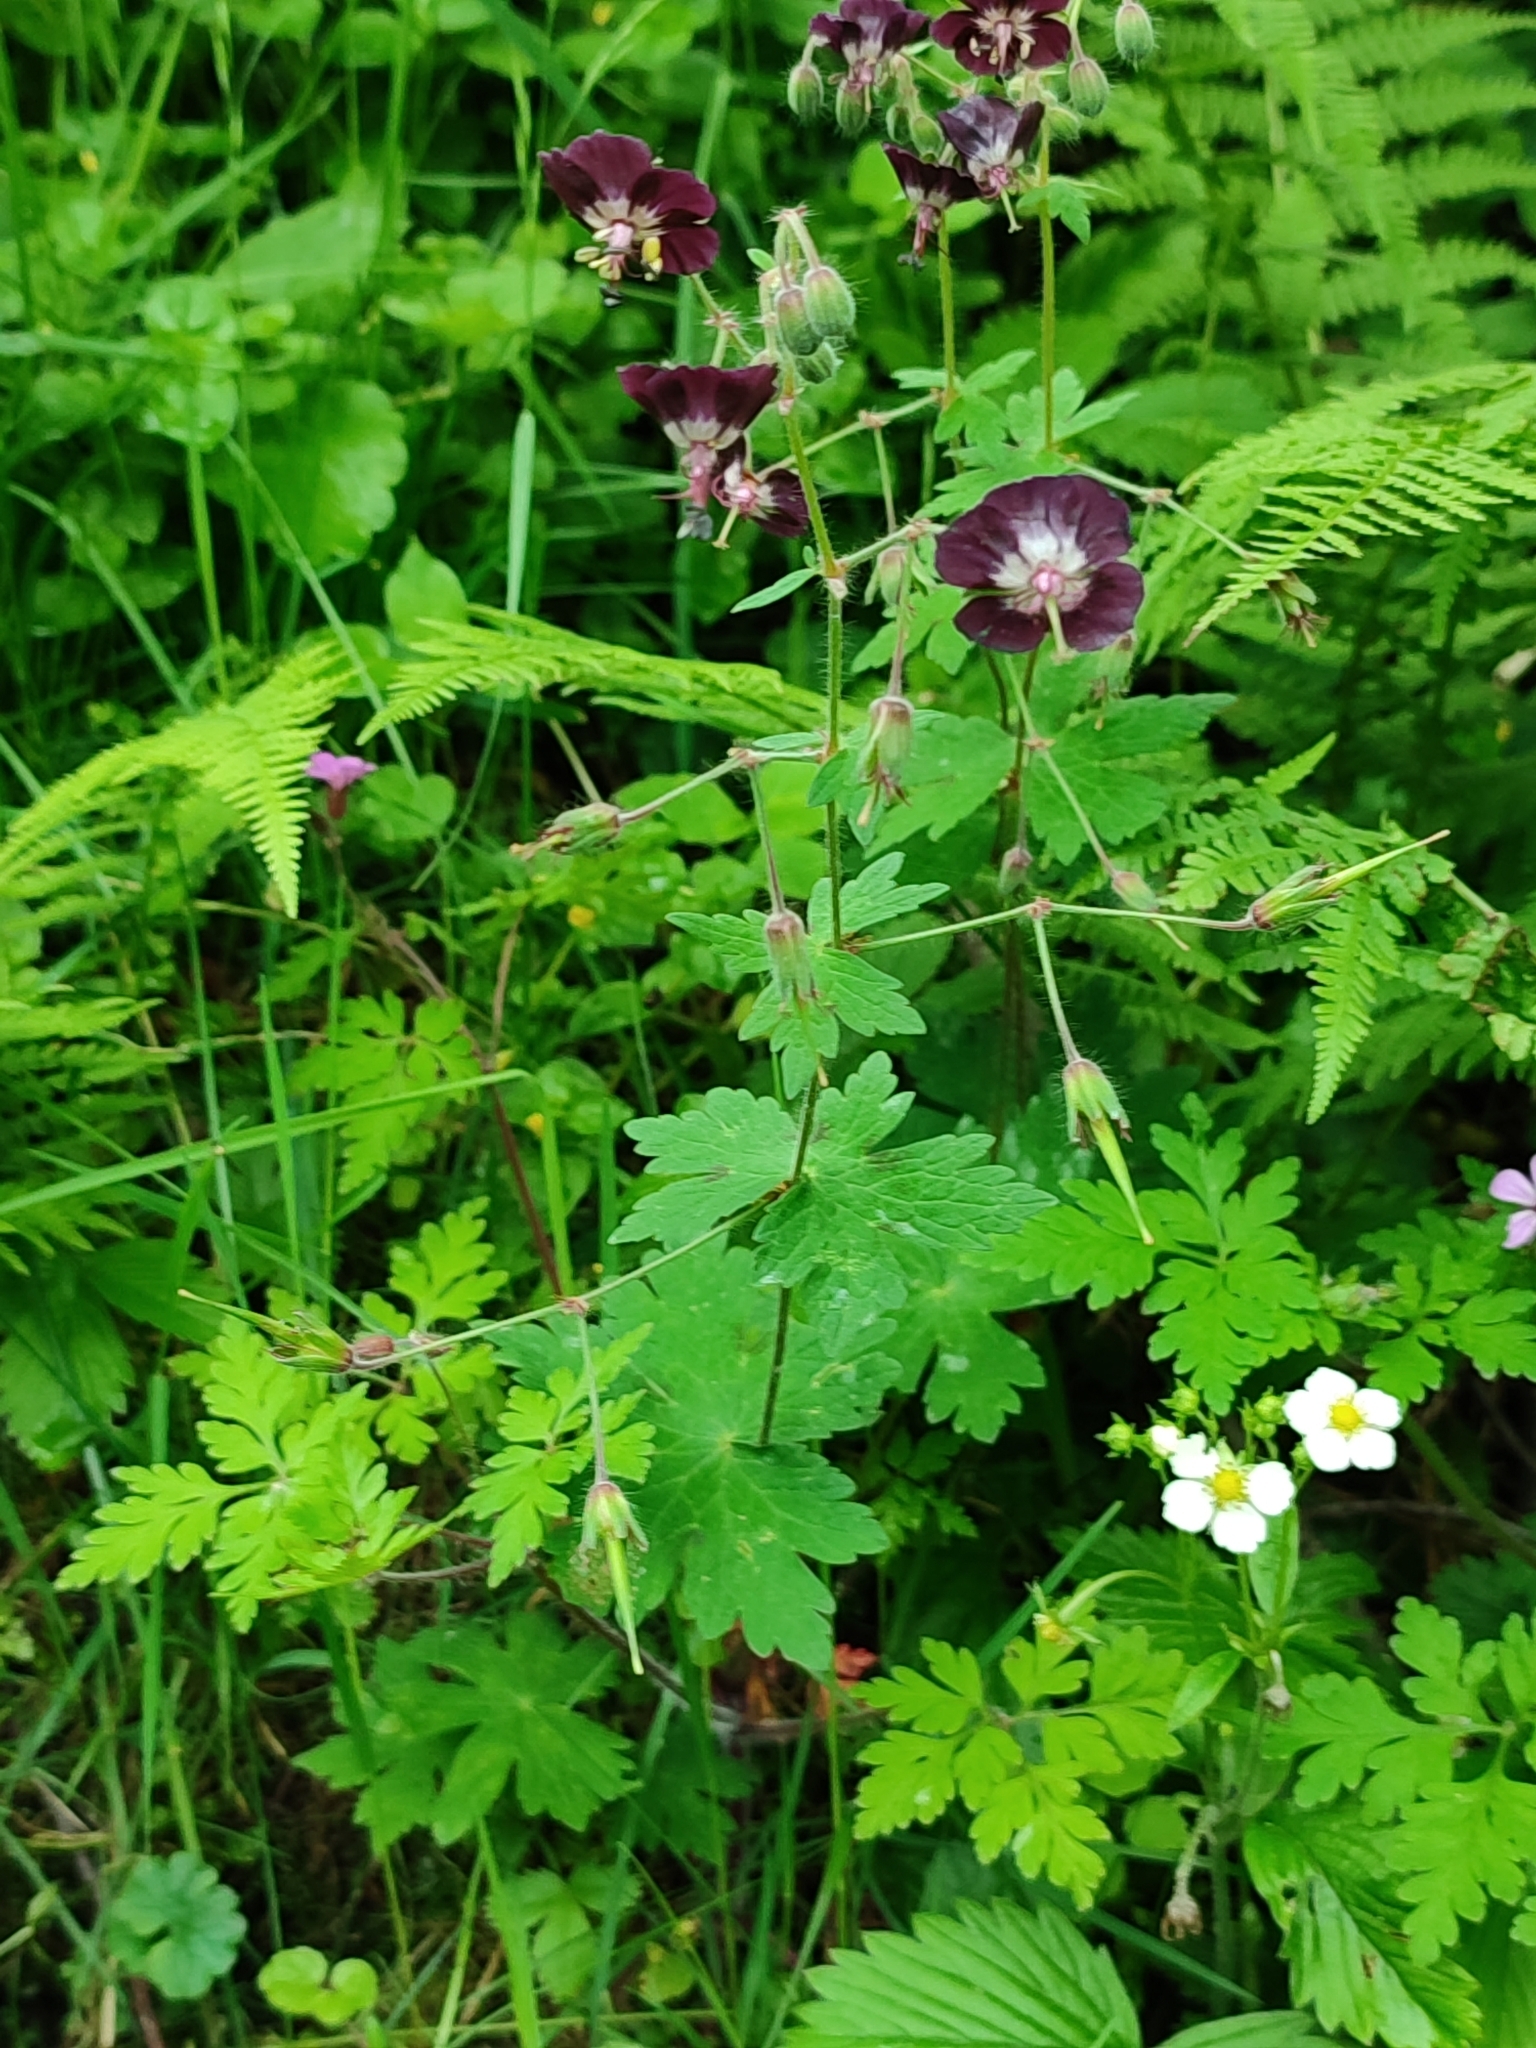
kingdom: Plantae
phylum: Tracheophyta
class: Magnoliopsida
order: Geraniales
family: Geraniaceae
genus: Geranium
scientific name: Geranium phaeum
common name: Dusky crane's-bill
